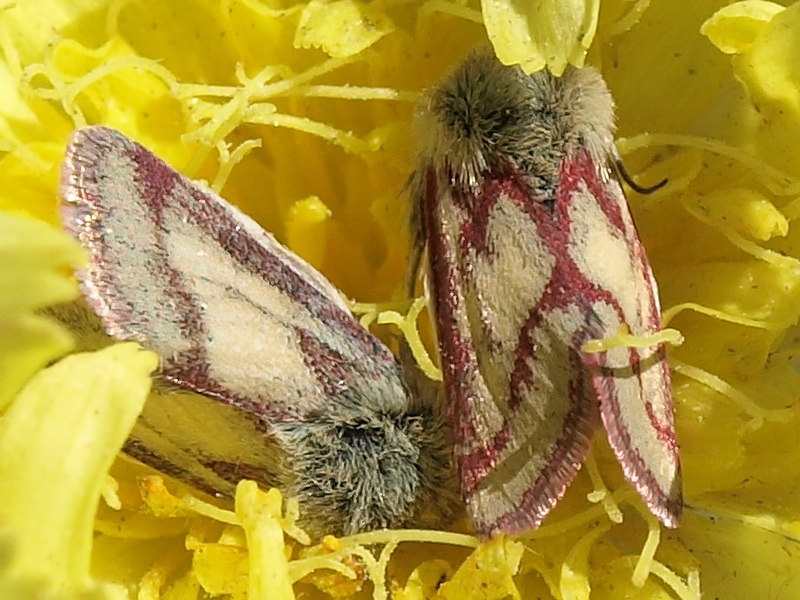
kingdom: Animalia
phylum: Arthropoda
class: Insecta
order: Lepidoptera
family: Noctuidae
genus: Heliolonche
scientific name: Heliolonche pictipennis
